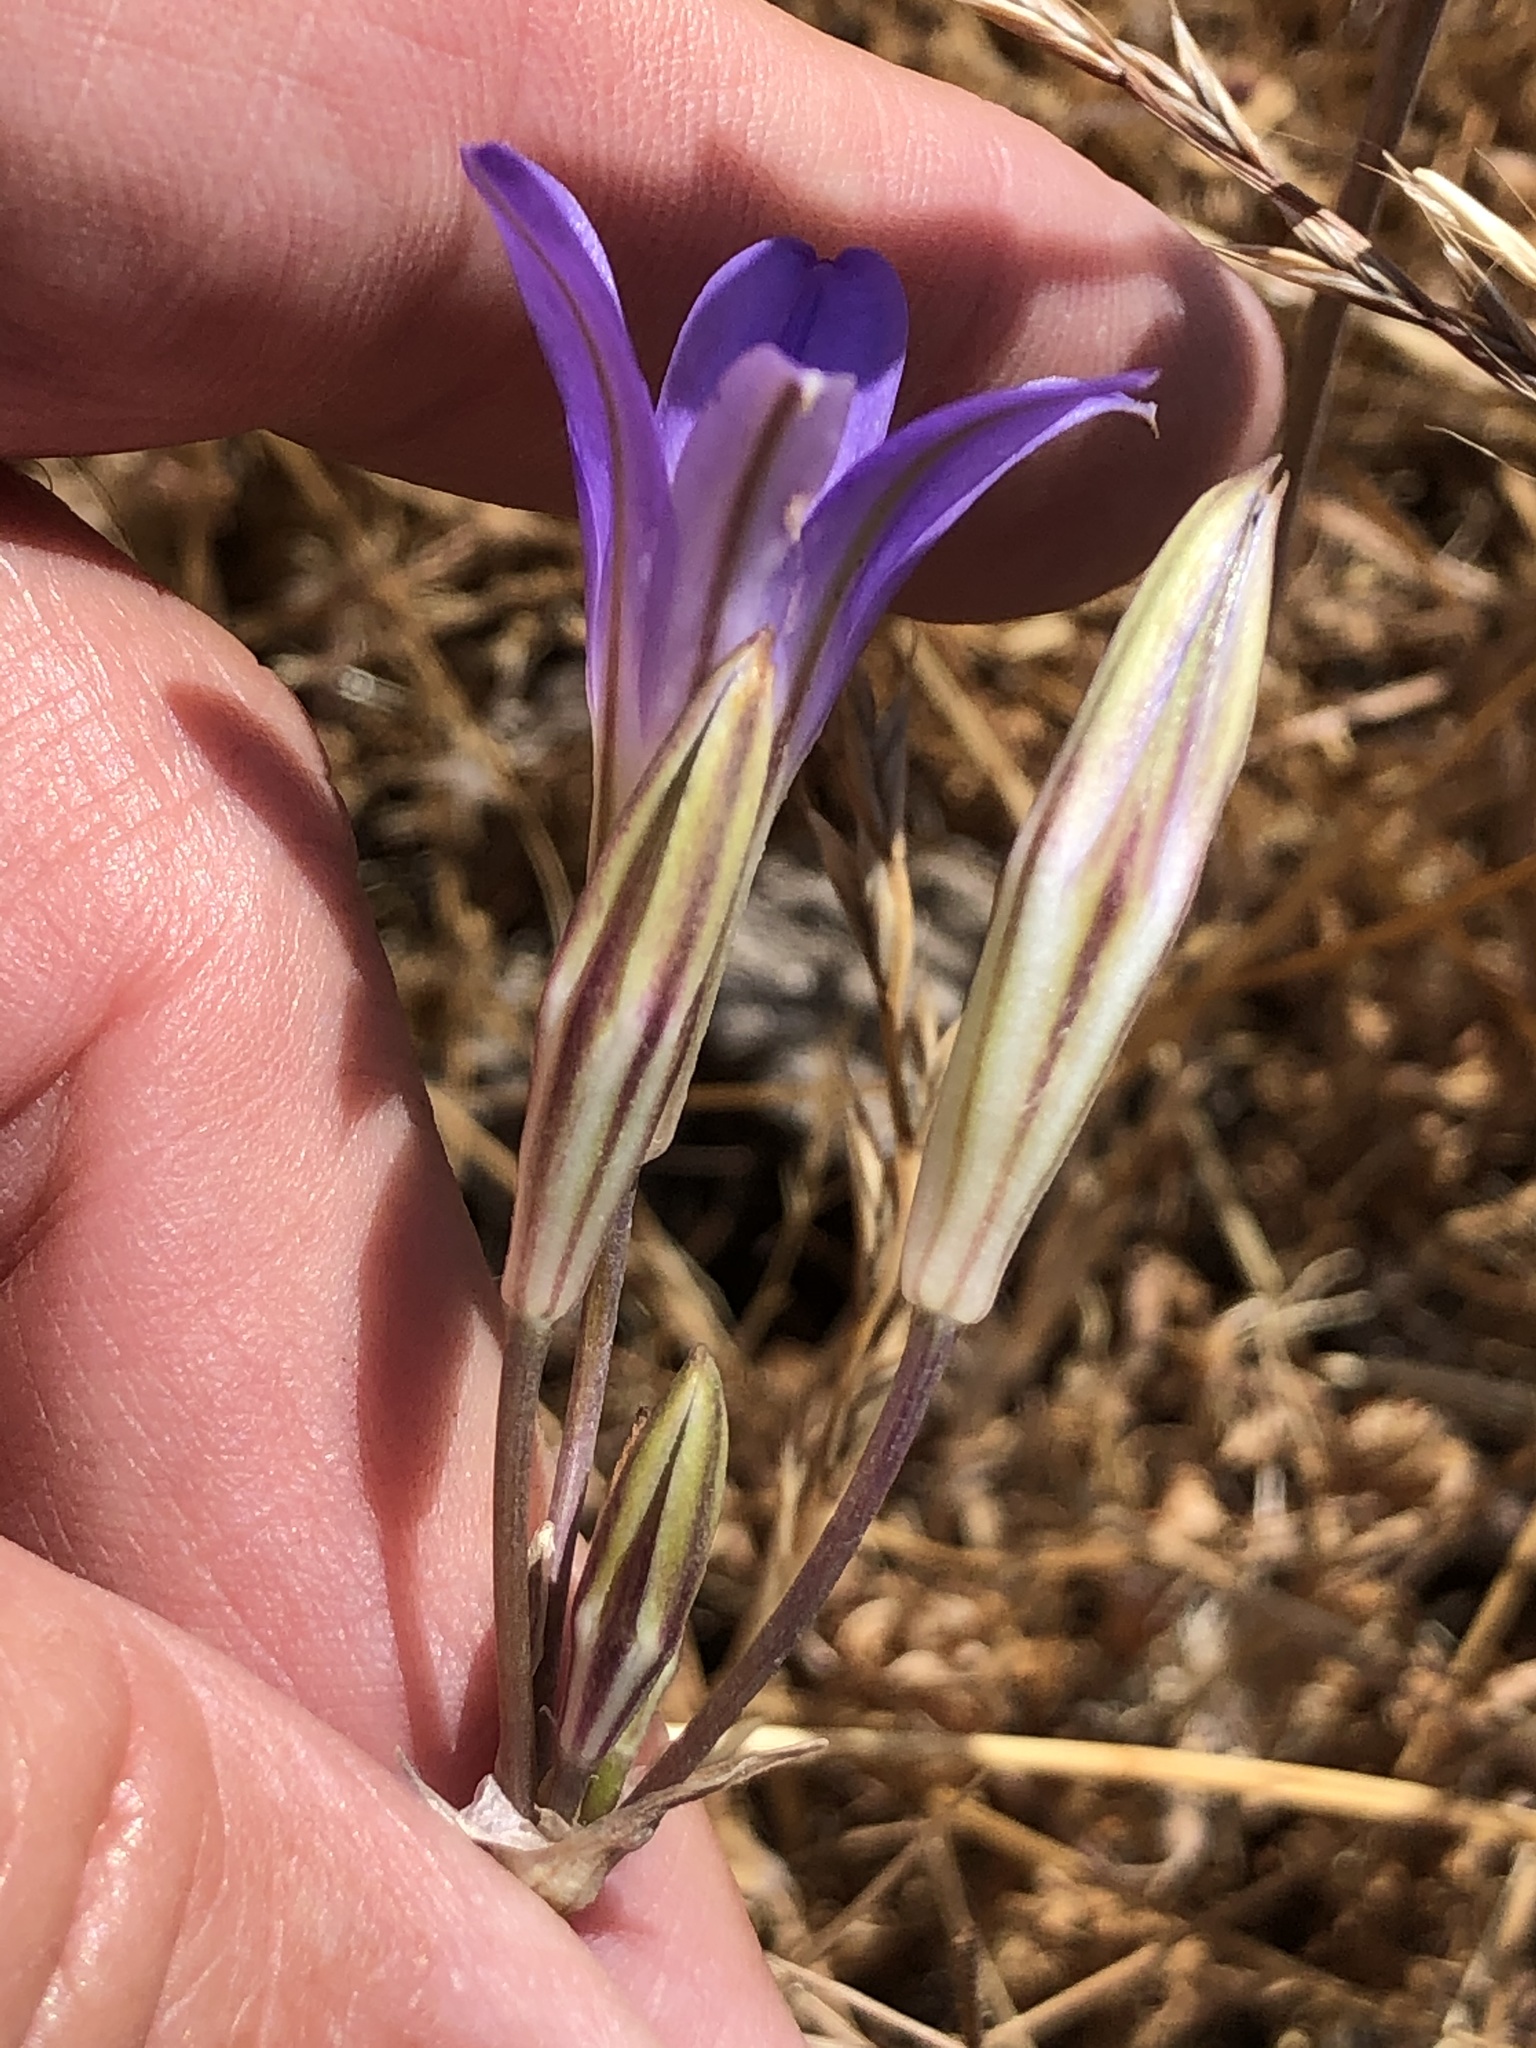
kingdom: Plantae
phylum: Tracheophyta
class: Liliopsida
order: Asparagales
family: Asparagaceae
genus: Brodiaea
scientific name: Brodiaea elegans
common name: Elegant cluster-lily
